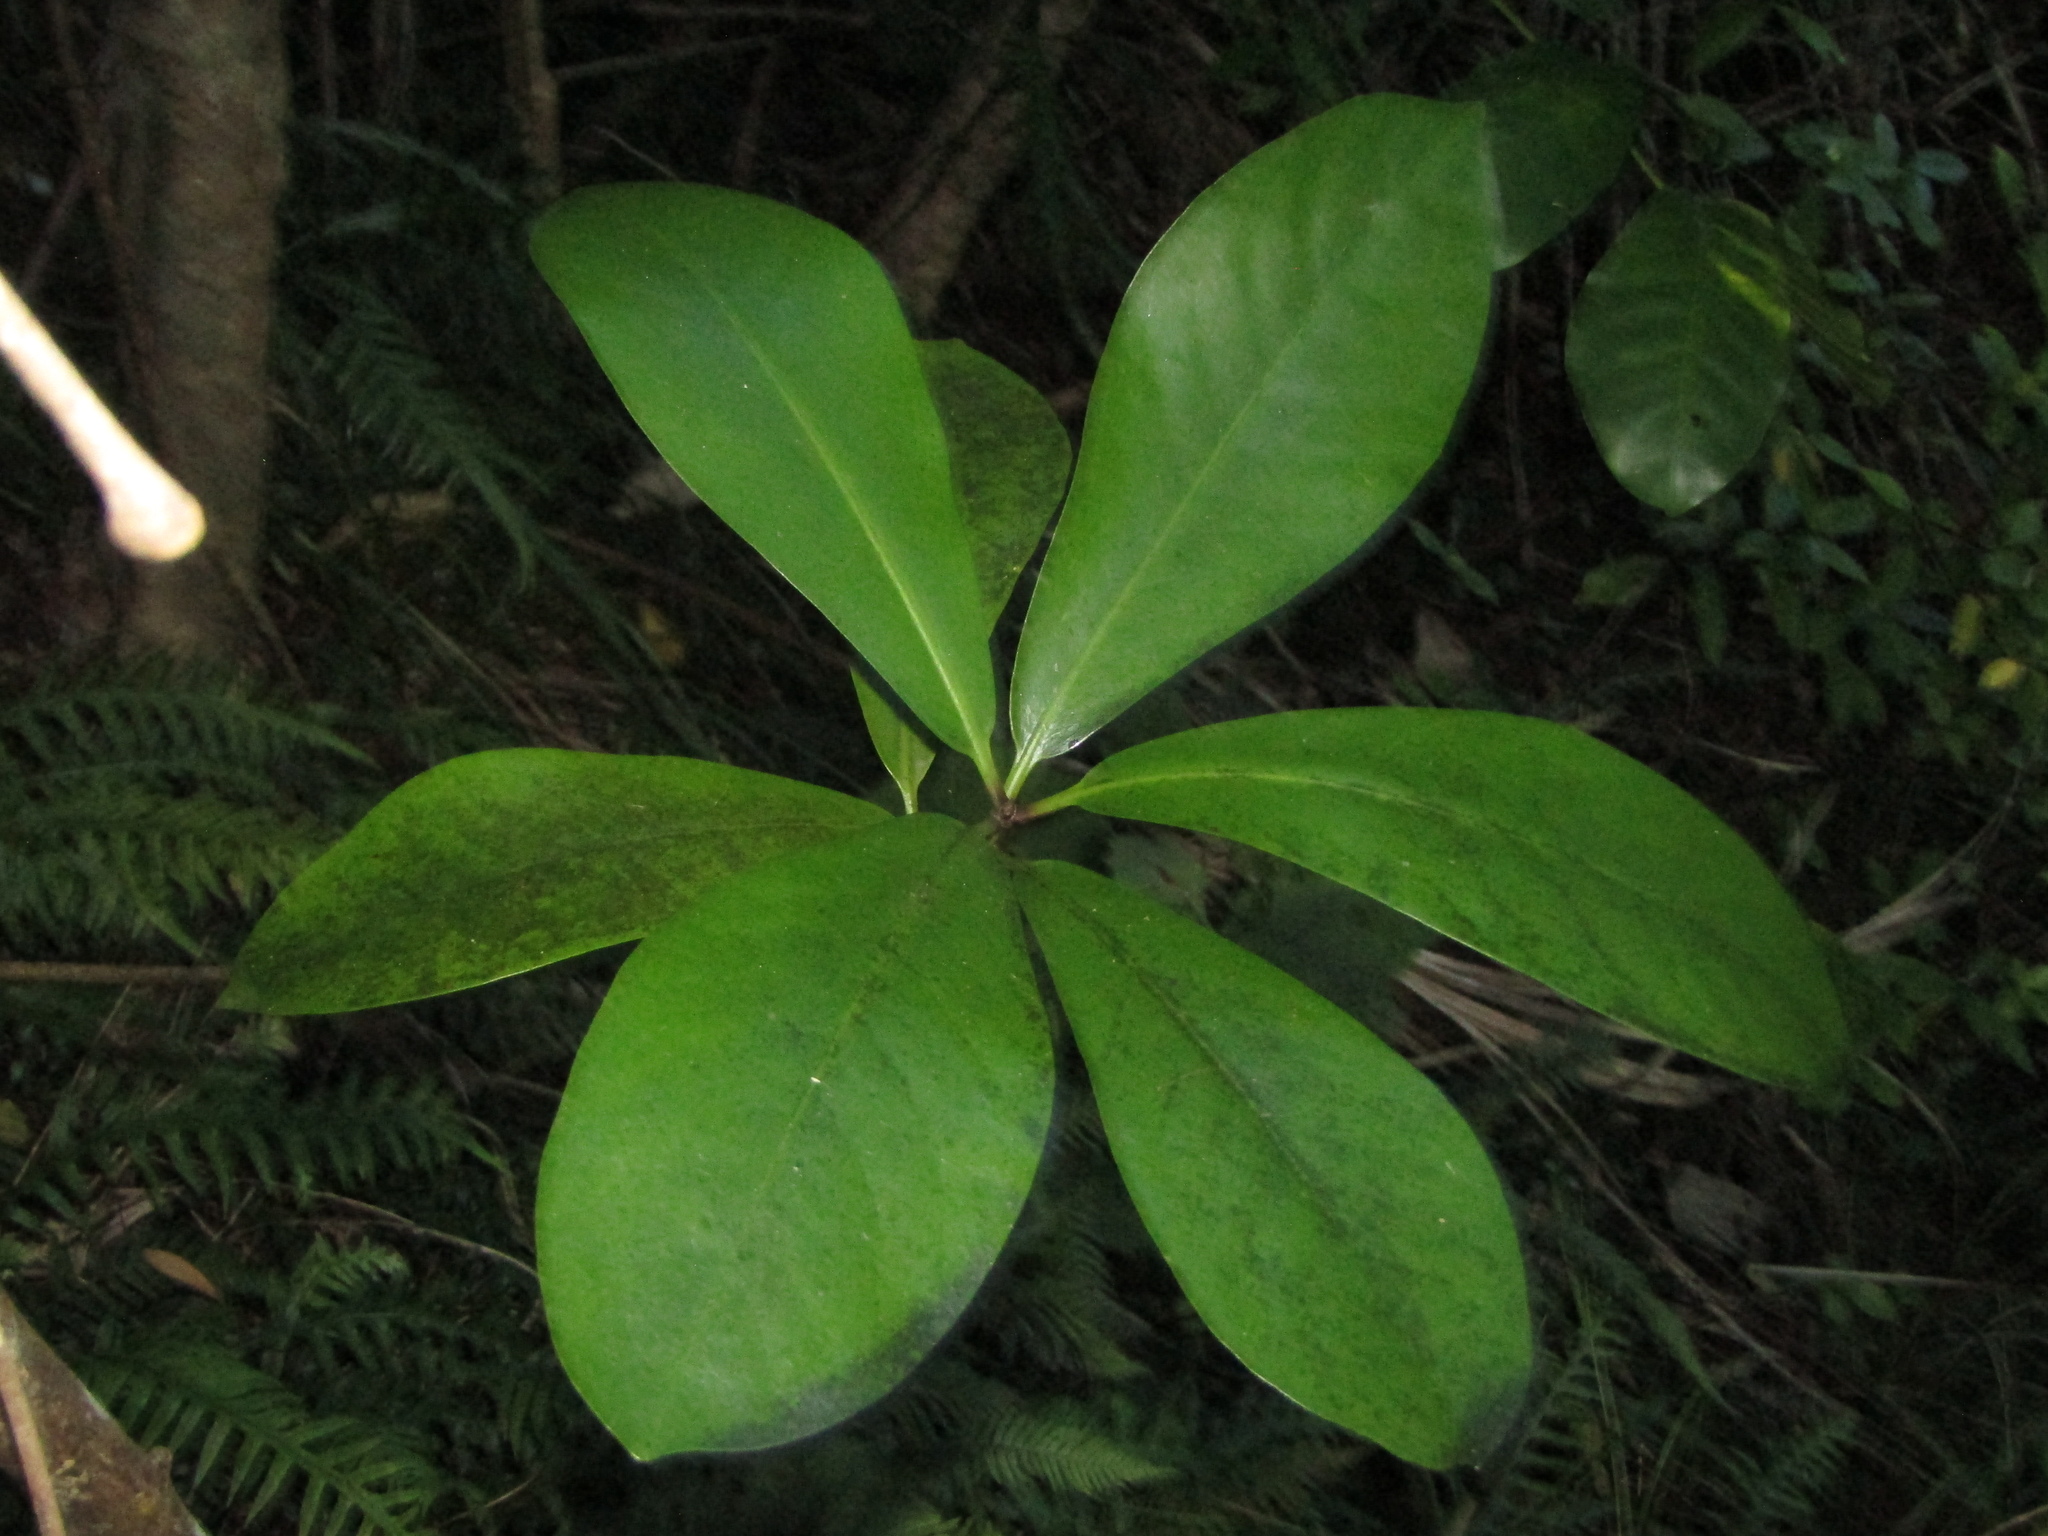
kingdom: Plantae
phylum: Tracheophyta
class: Magnoliopsida
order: Cucurbitales
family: Corynocarpaceae
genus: Corynocarpus
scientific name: Corynocarpus laevigatus
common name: New zealand laurel
